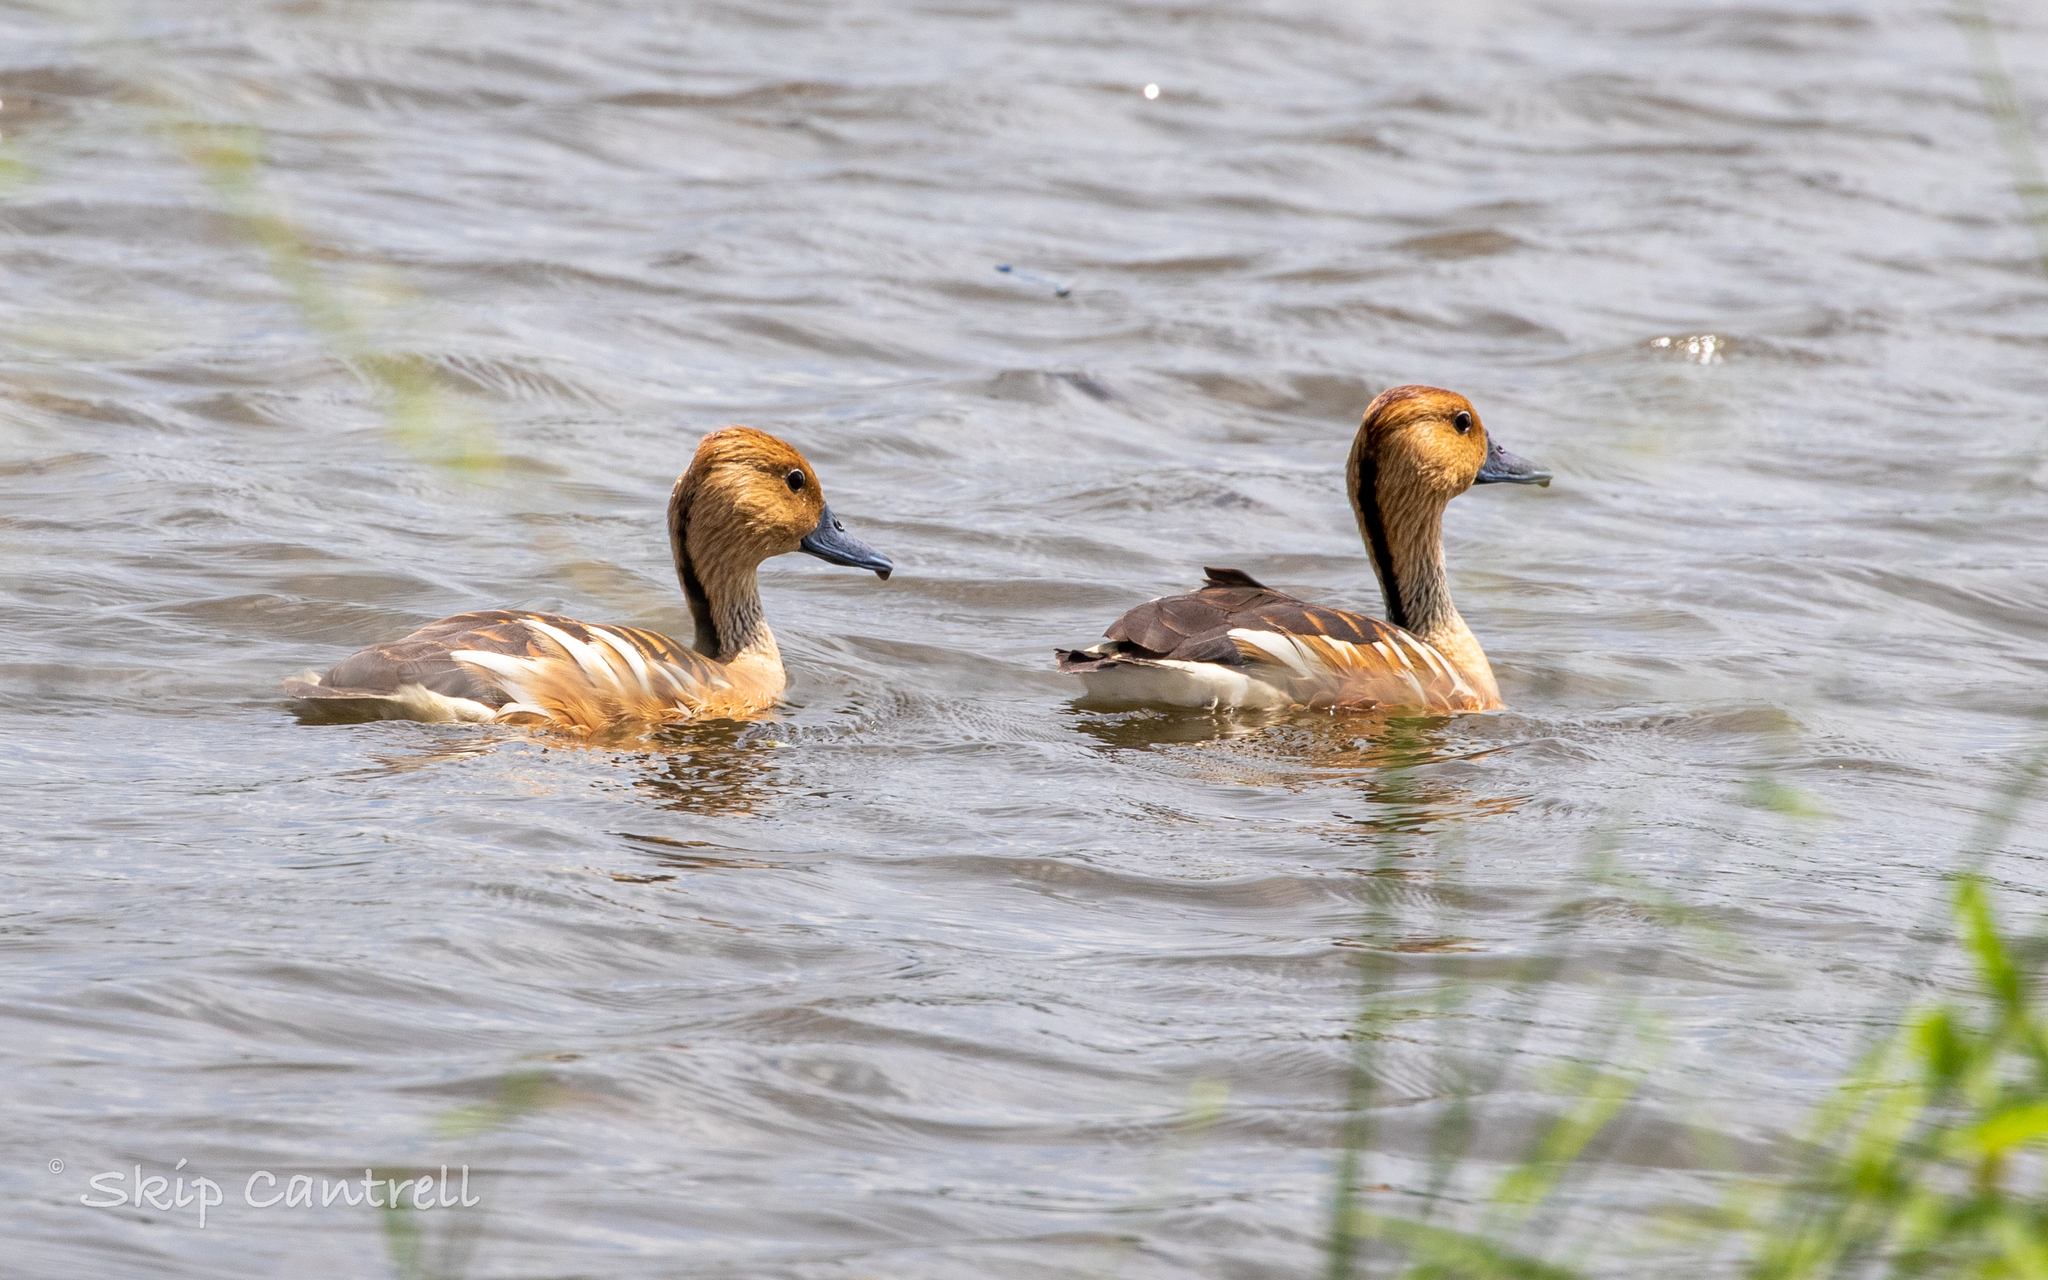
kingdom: Animalia
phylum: Chordata
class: Aves
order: Anseriformes
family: Anatidae
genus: Dendrocygna
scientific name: Dendrocygna bicolor
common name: Fulvous whistling duck
